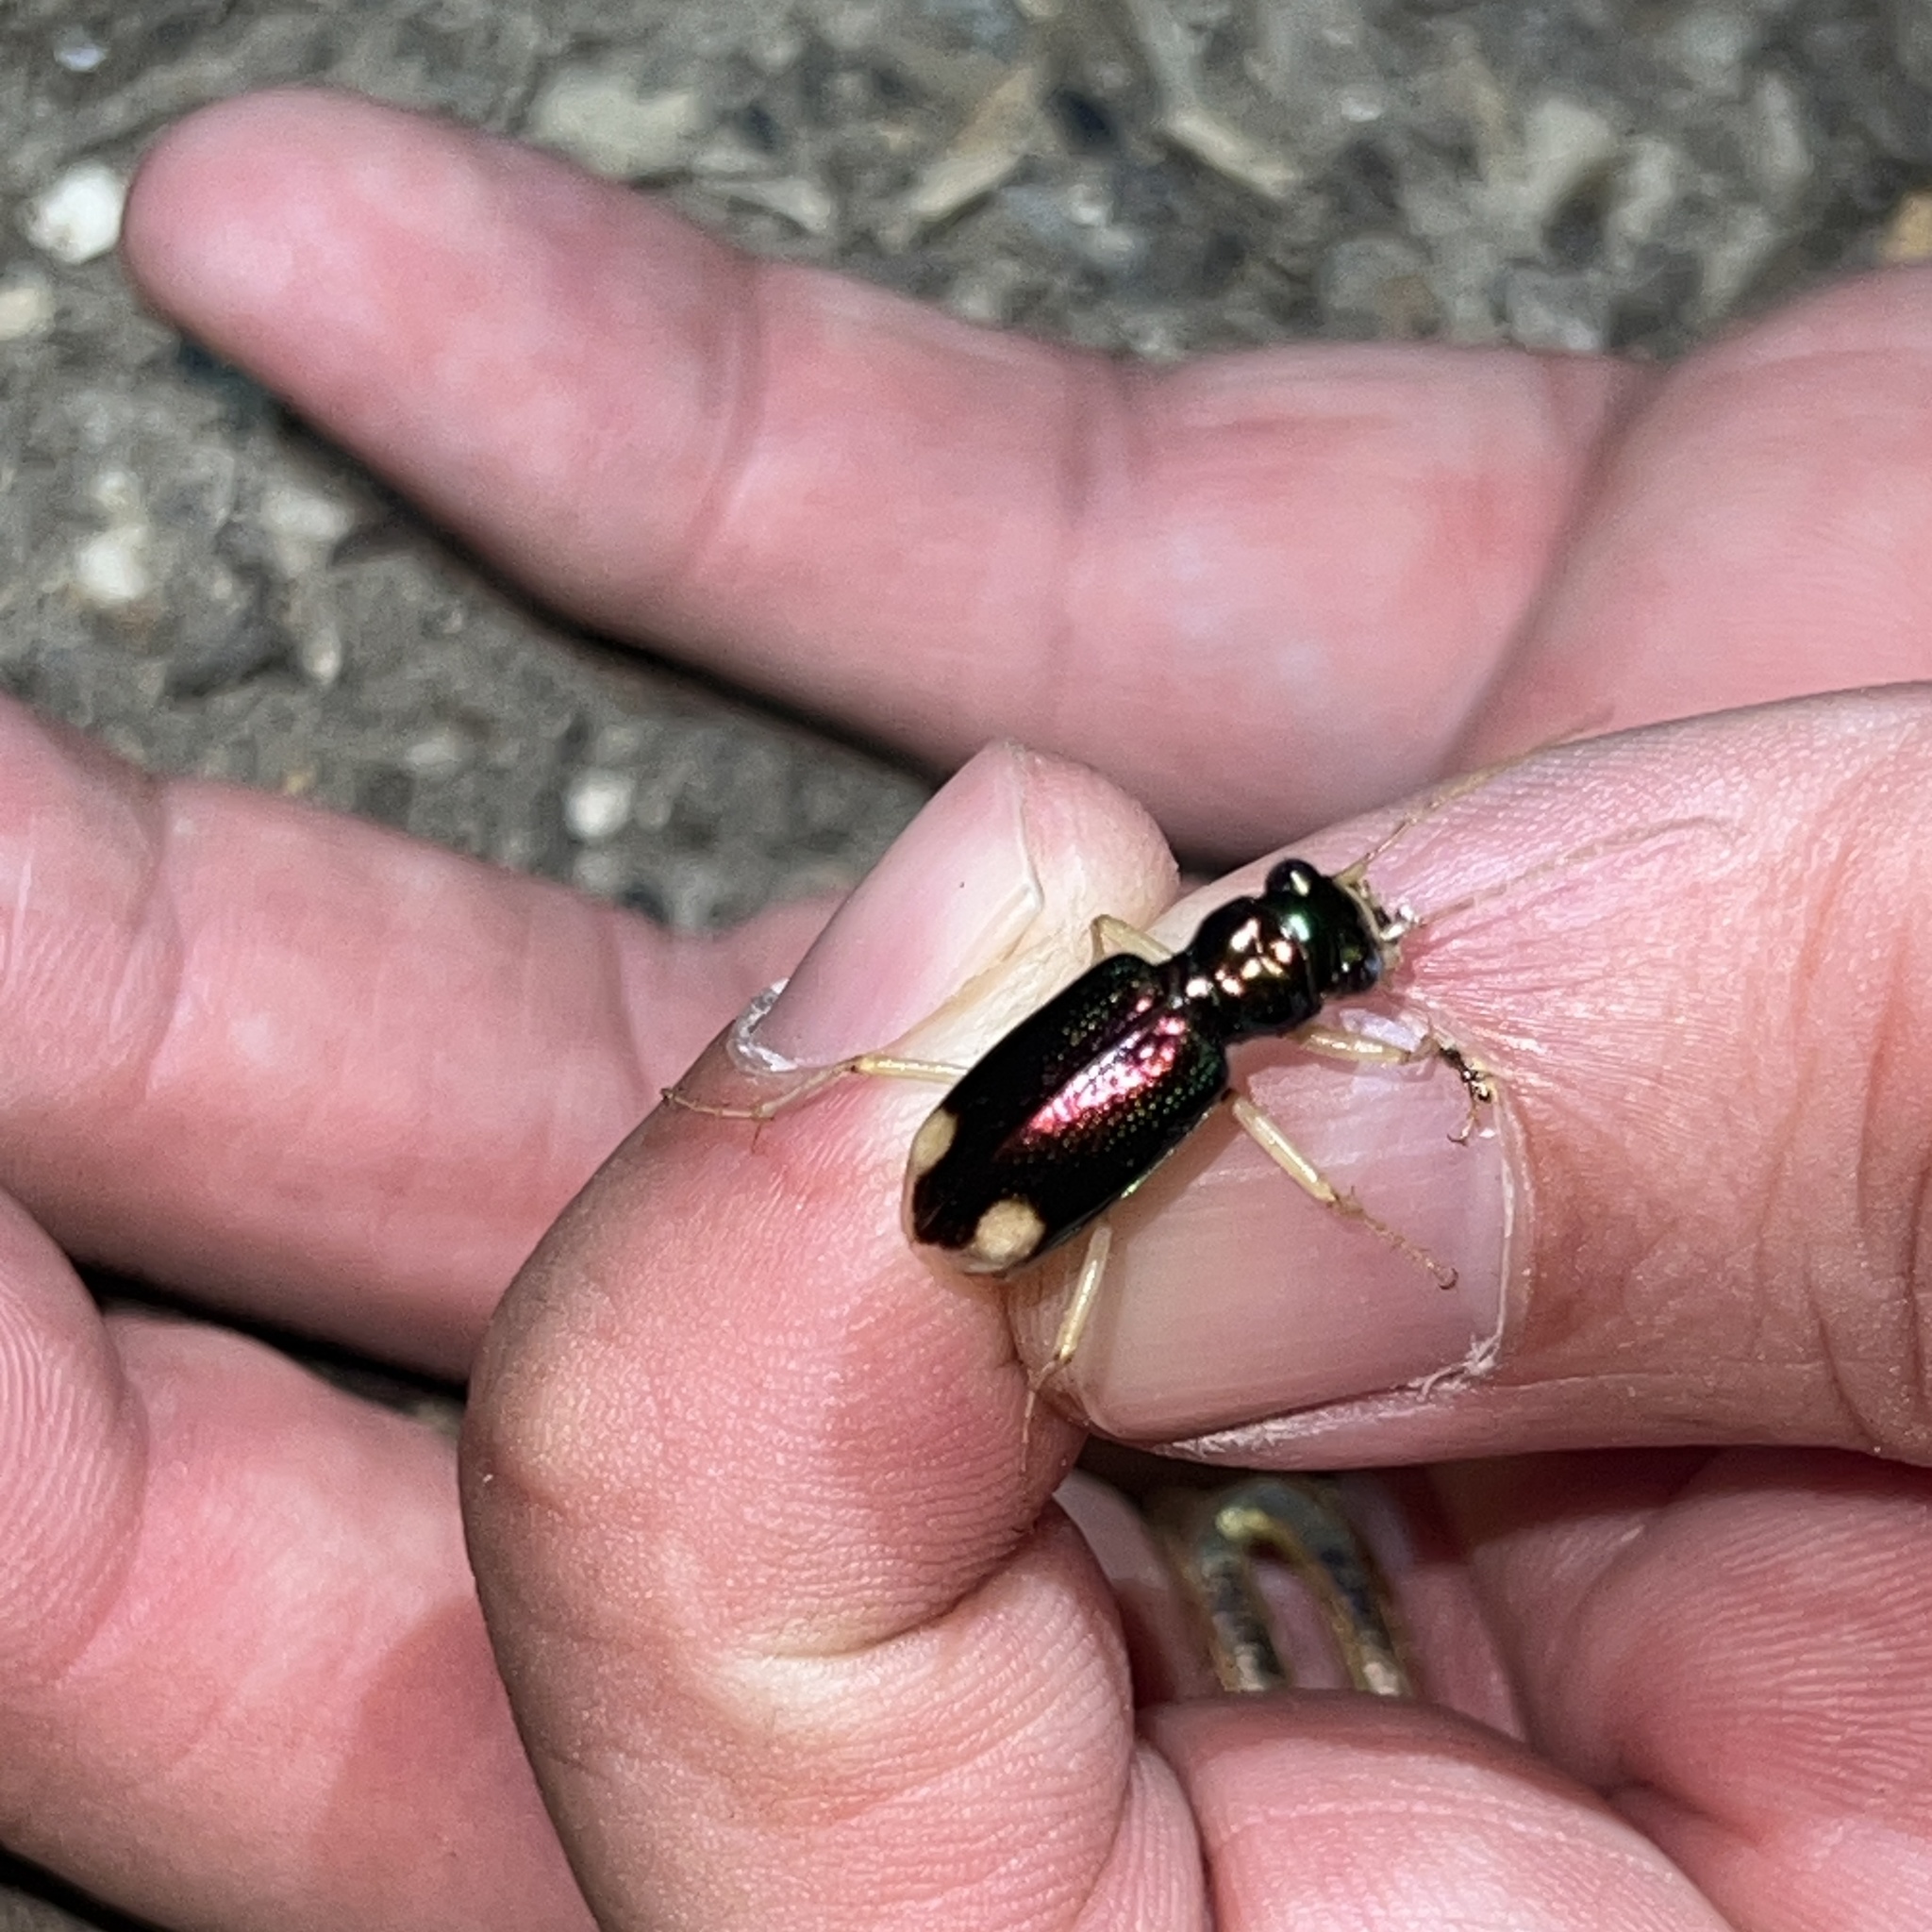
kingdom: Animalia
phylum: Arthropoda
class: Insecta
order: Coleoptera
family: Carabidae
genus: Tetracha
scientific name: Tetracha carolina
